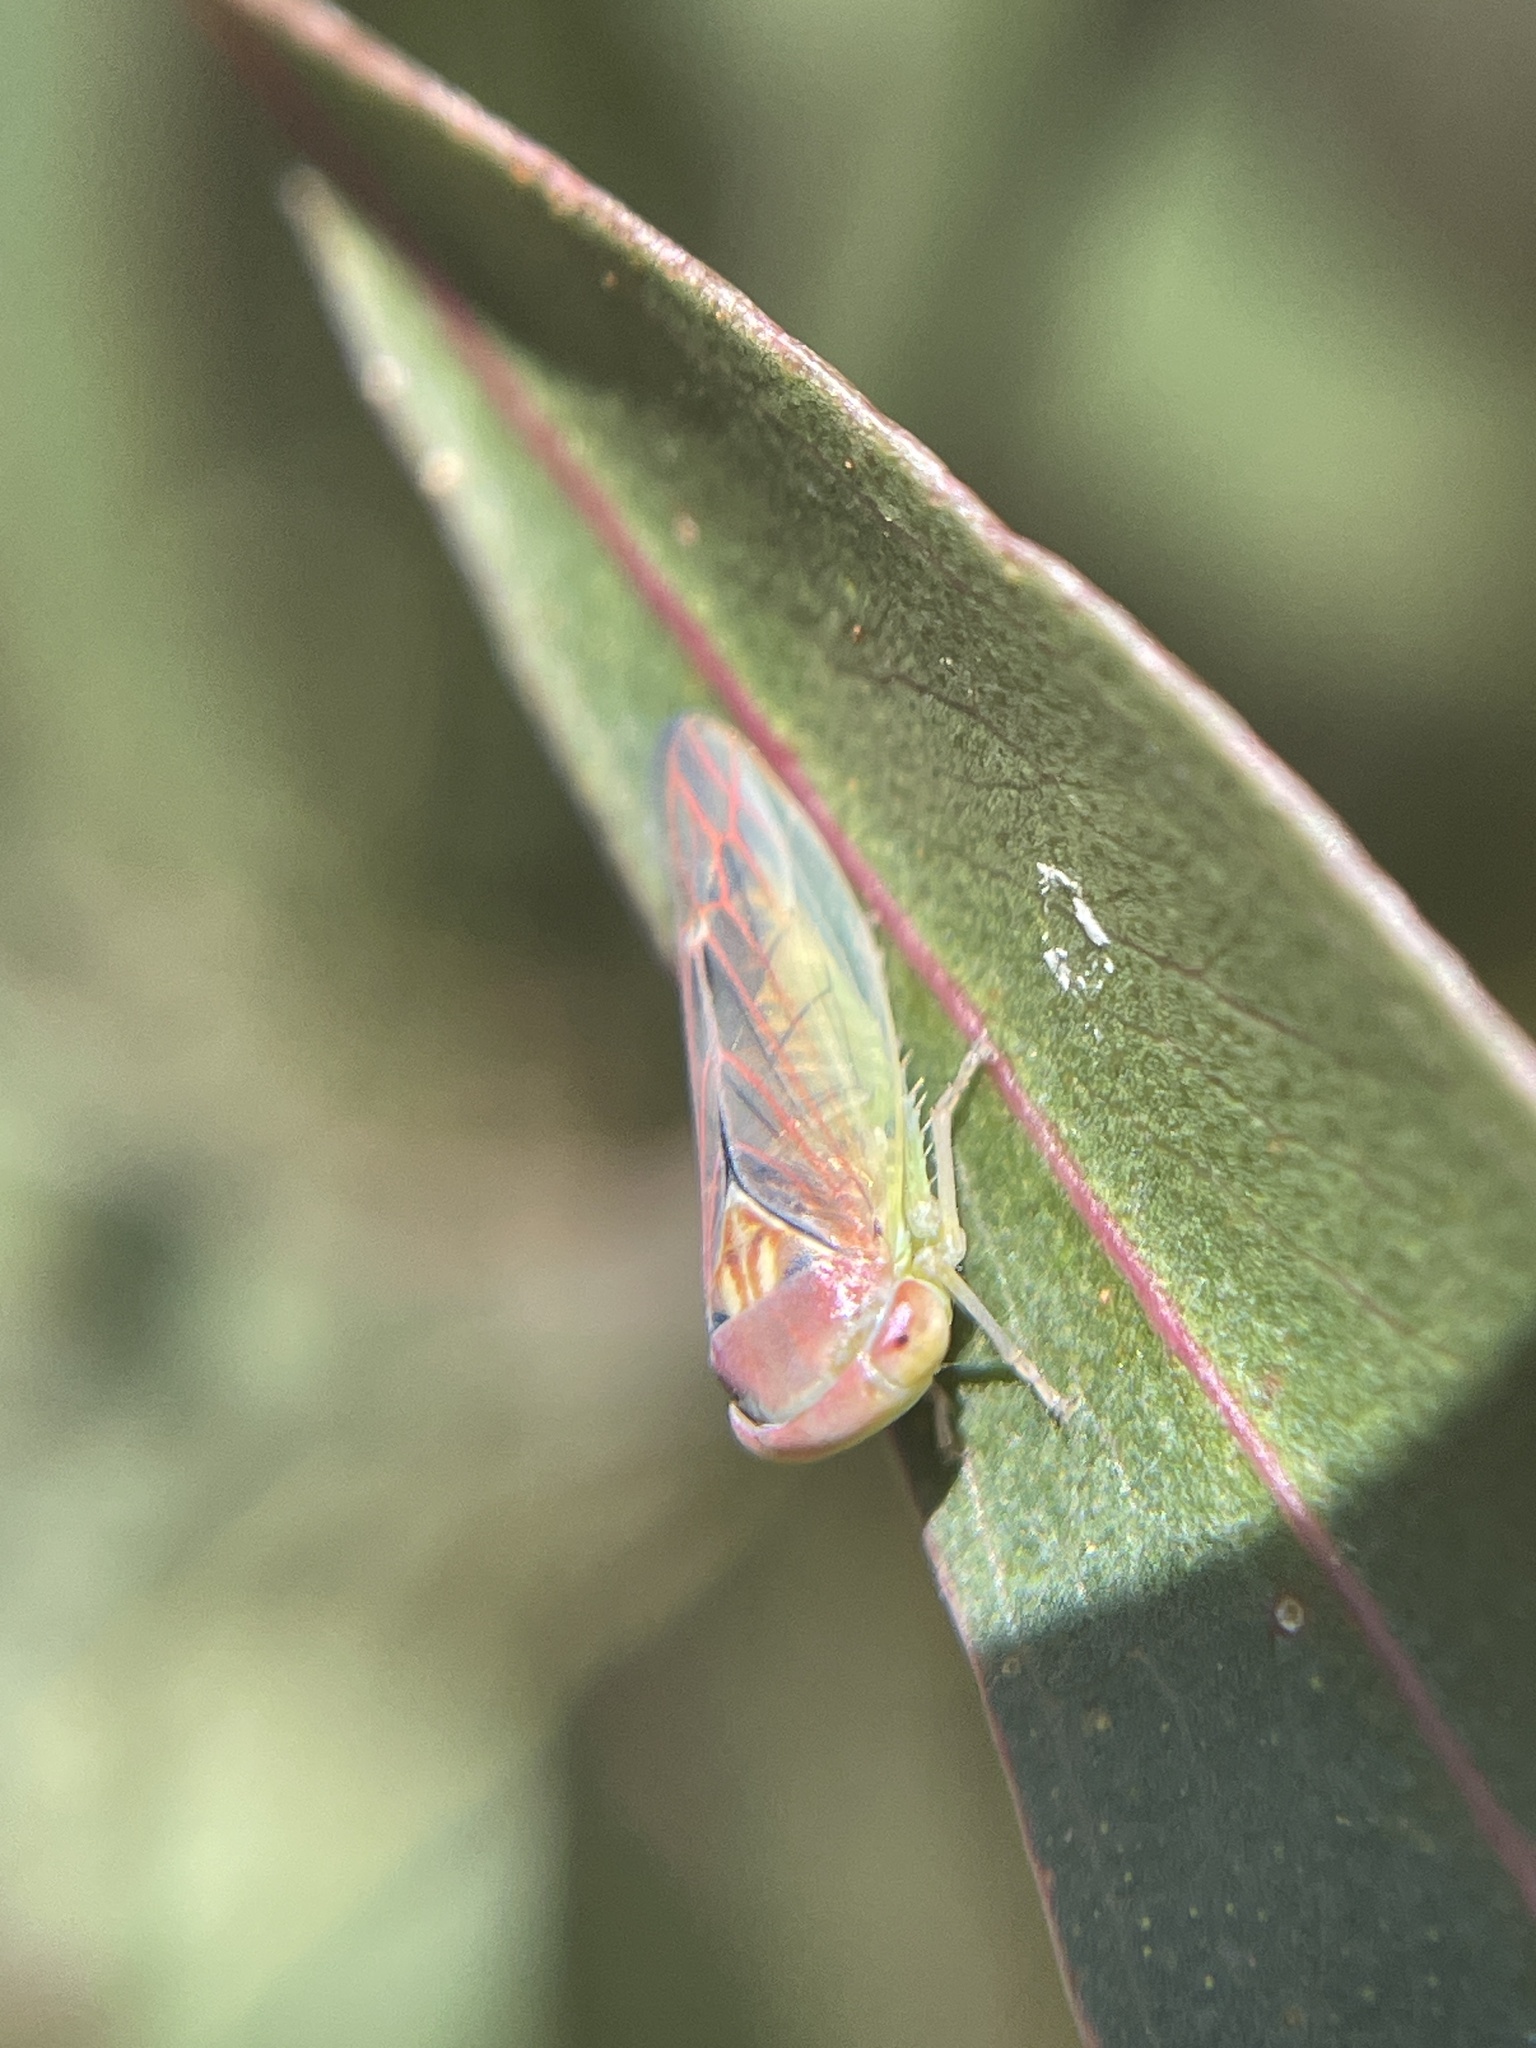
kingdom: Animalia
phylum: Arthropoda
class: Insecta
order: Hemiptera
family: Cicadellidae
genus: Rosopaella
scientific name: Rosopaella lopada
